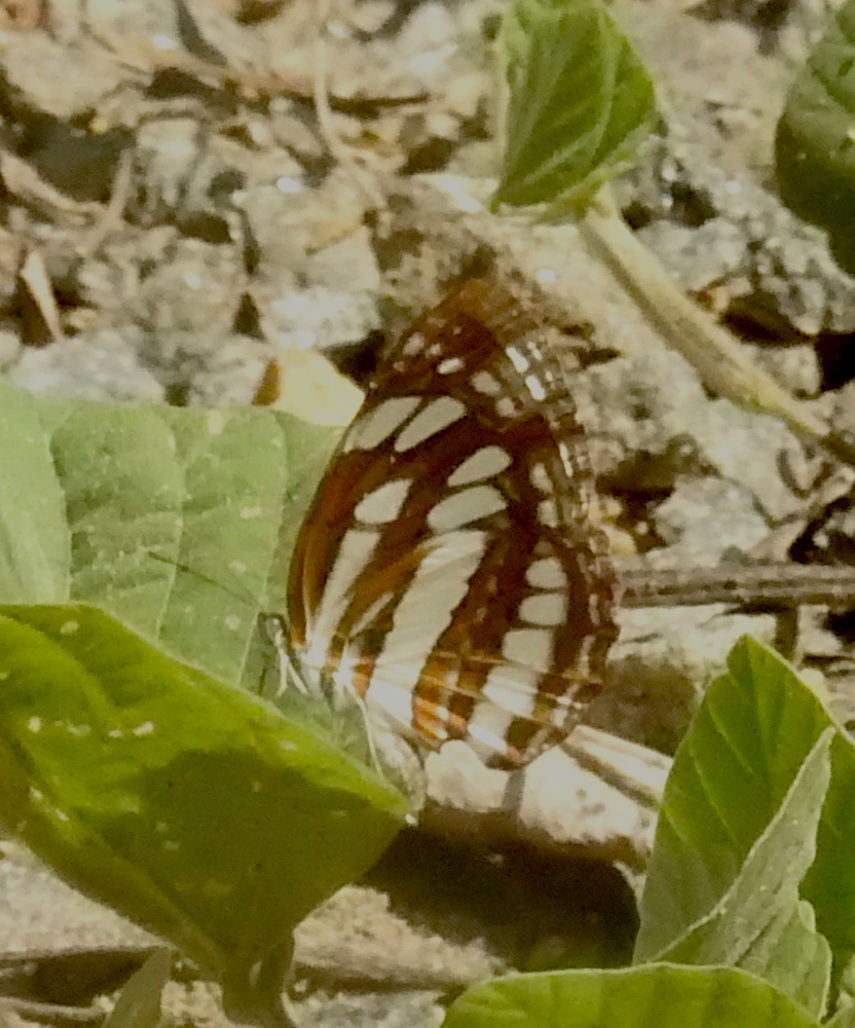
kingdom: Animalia
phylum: Arthropoda
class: Insecta
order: Lepidoptera
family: Nymphalidae
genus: Neptis
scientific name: Neptis hylas
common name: Common sailer
